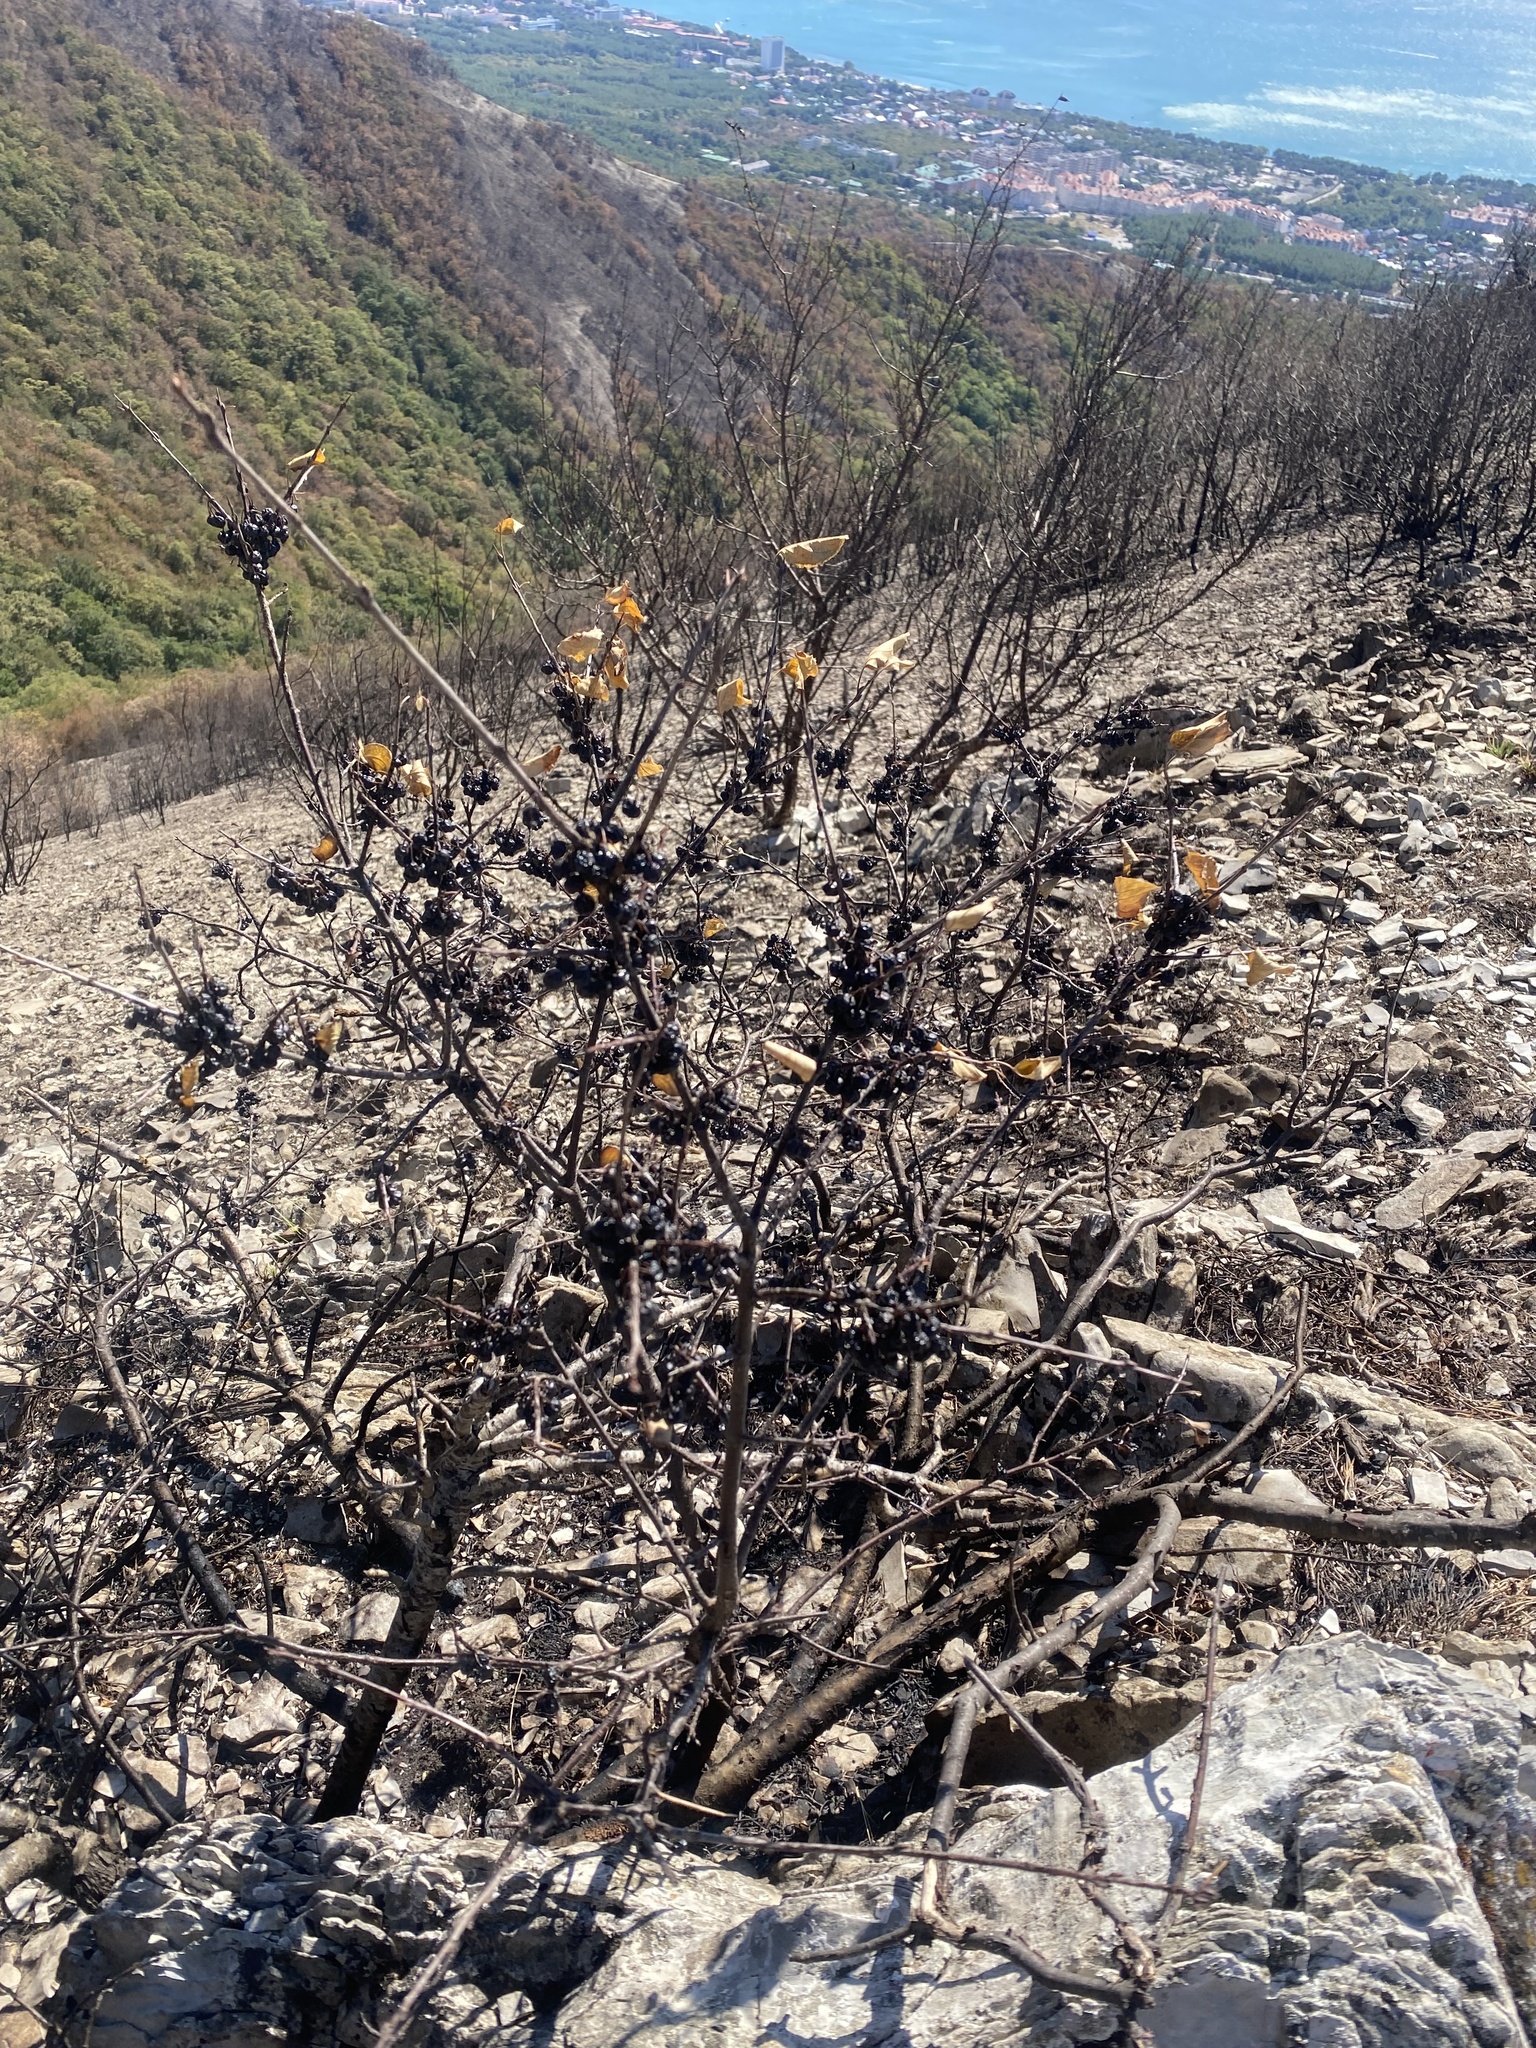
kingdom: Plantae
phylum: Tracheophyta
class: Magnoliopsida
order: Rosales
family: Rhamnaceae
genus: Rhamnus
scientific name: Rhamnus cathartica
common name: Common buckthorn
